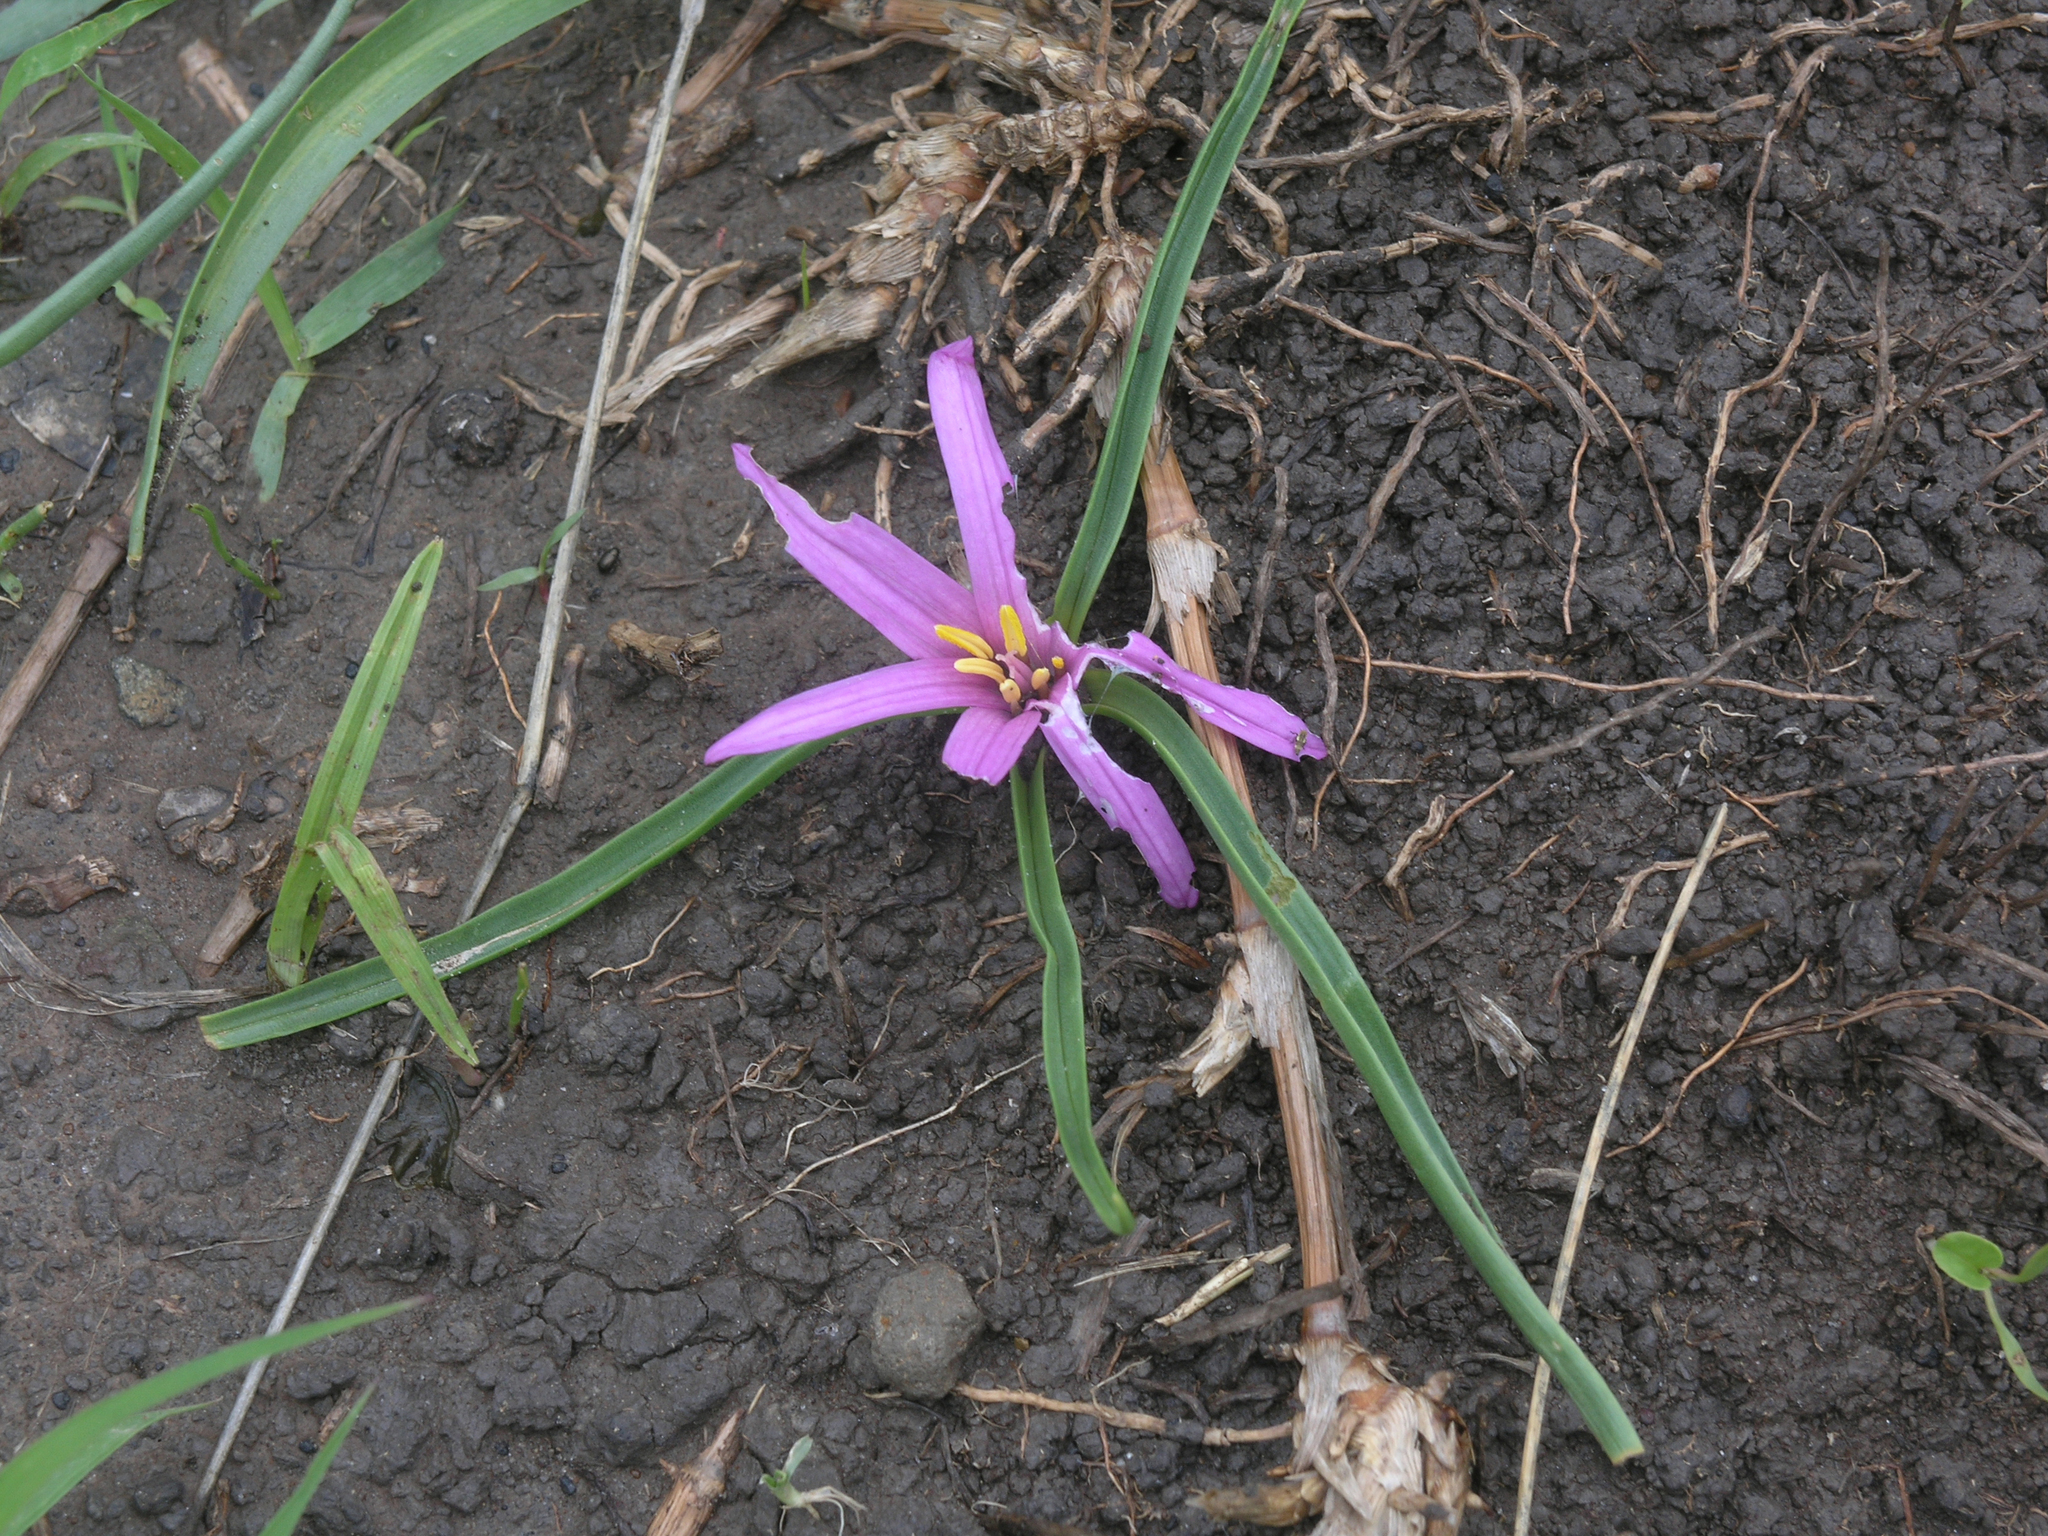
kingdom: Plantae
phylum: Tracheophyta
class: Liliopsida
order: Liliales
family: Colchicaceae
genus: Colchicum
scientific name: Colchicum schimperianum
